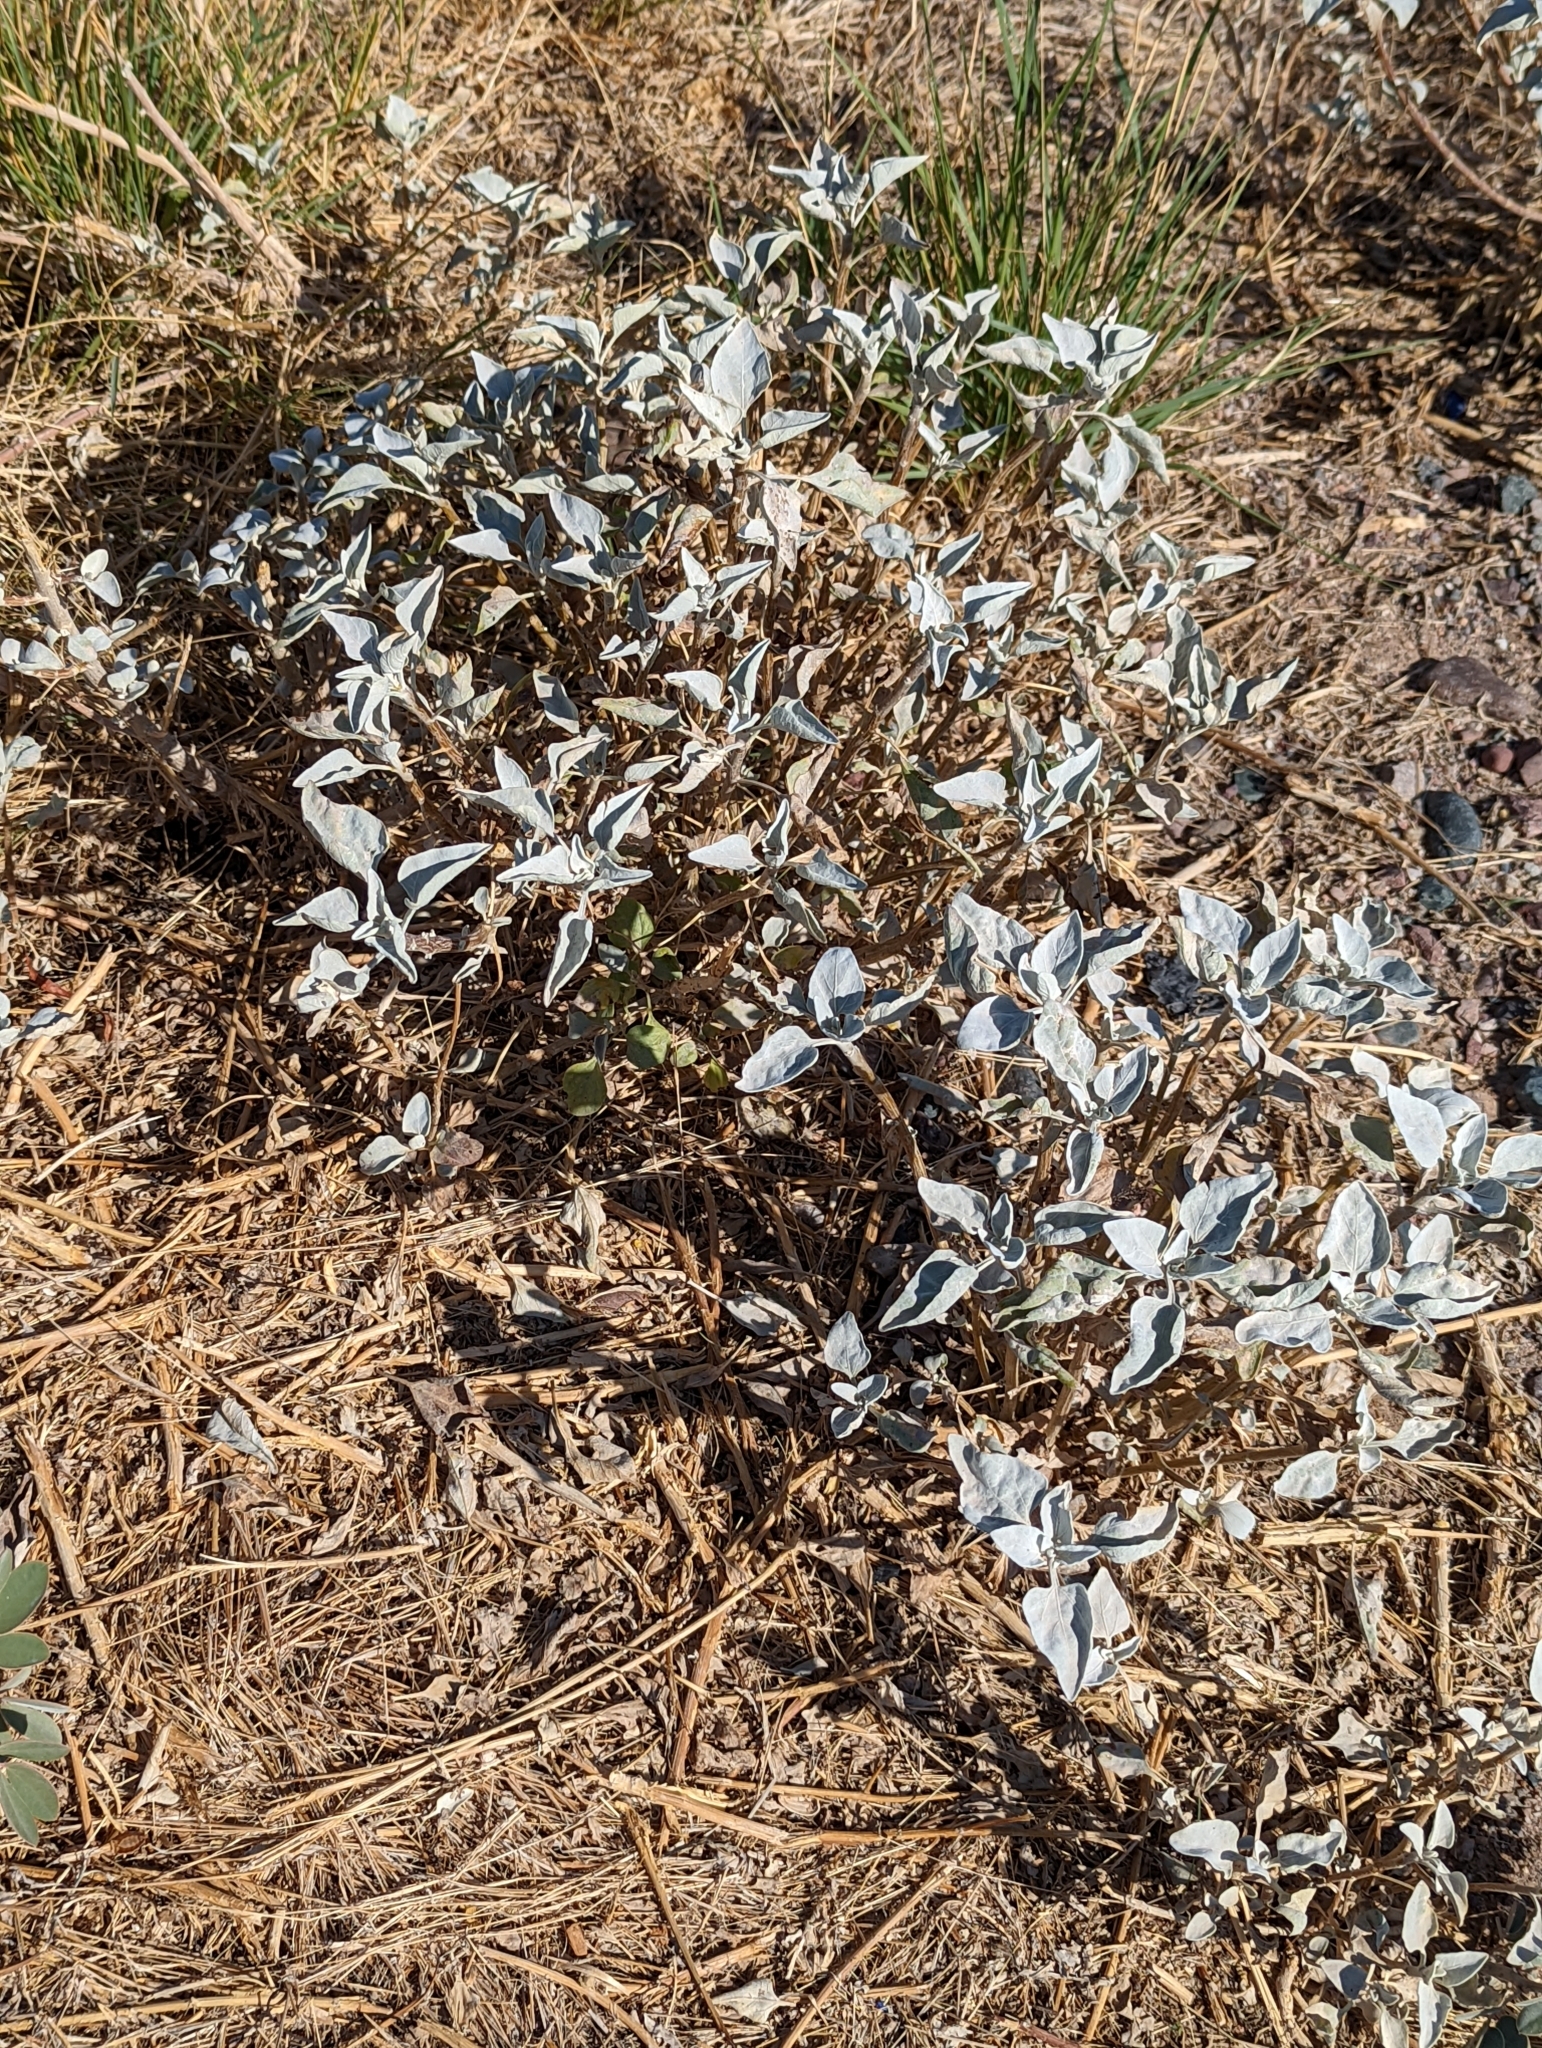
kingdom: Plantae
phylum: Tracheophyta
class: Magnoliopsida
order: Asterales
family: Asteraceae
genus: Encelia
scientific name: Encelia farinosa
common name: Brittlebush
